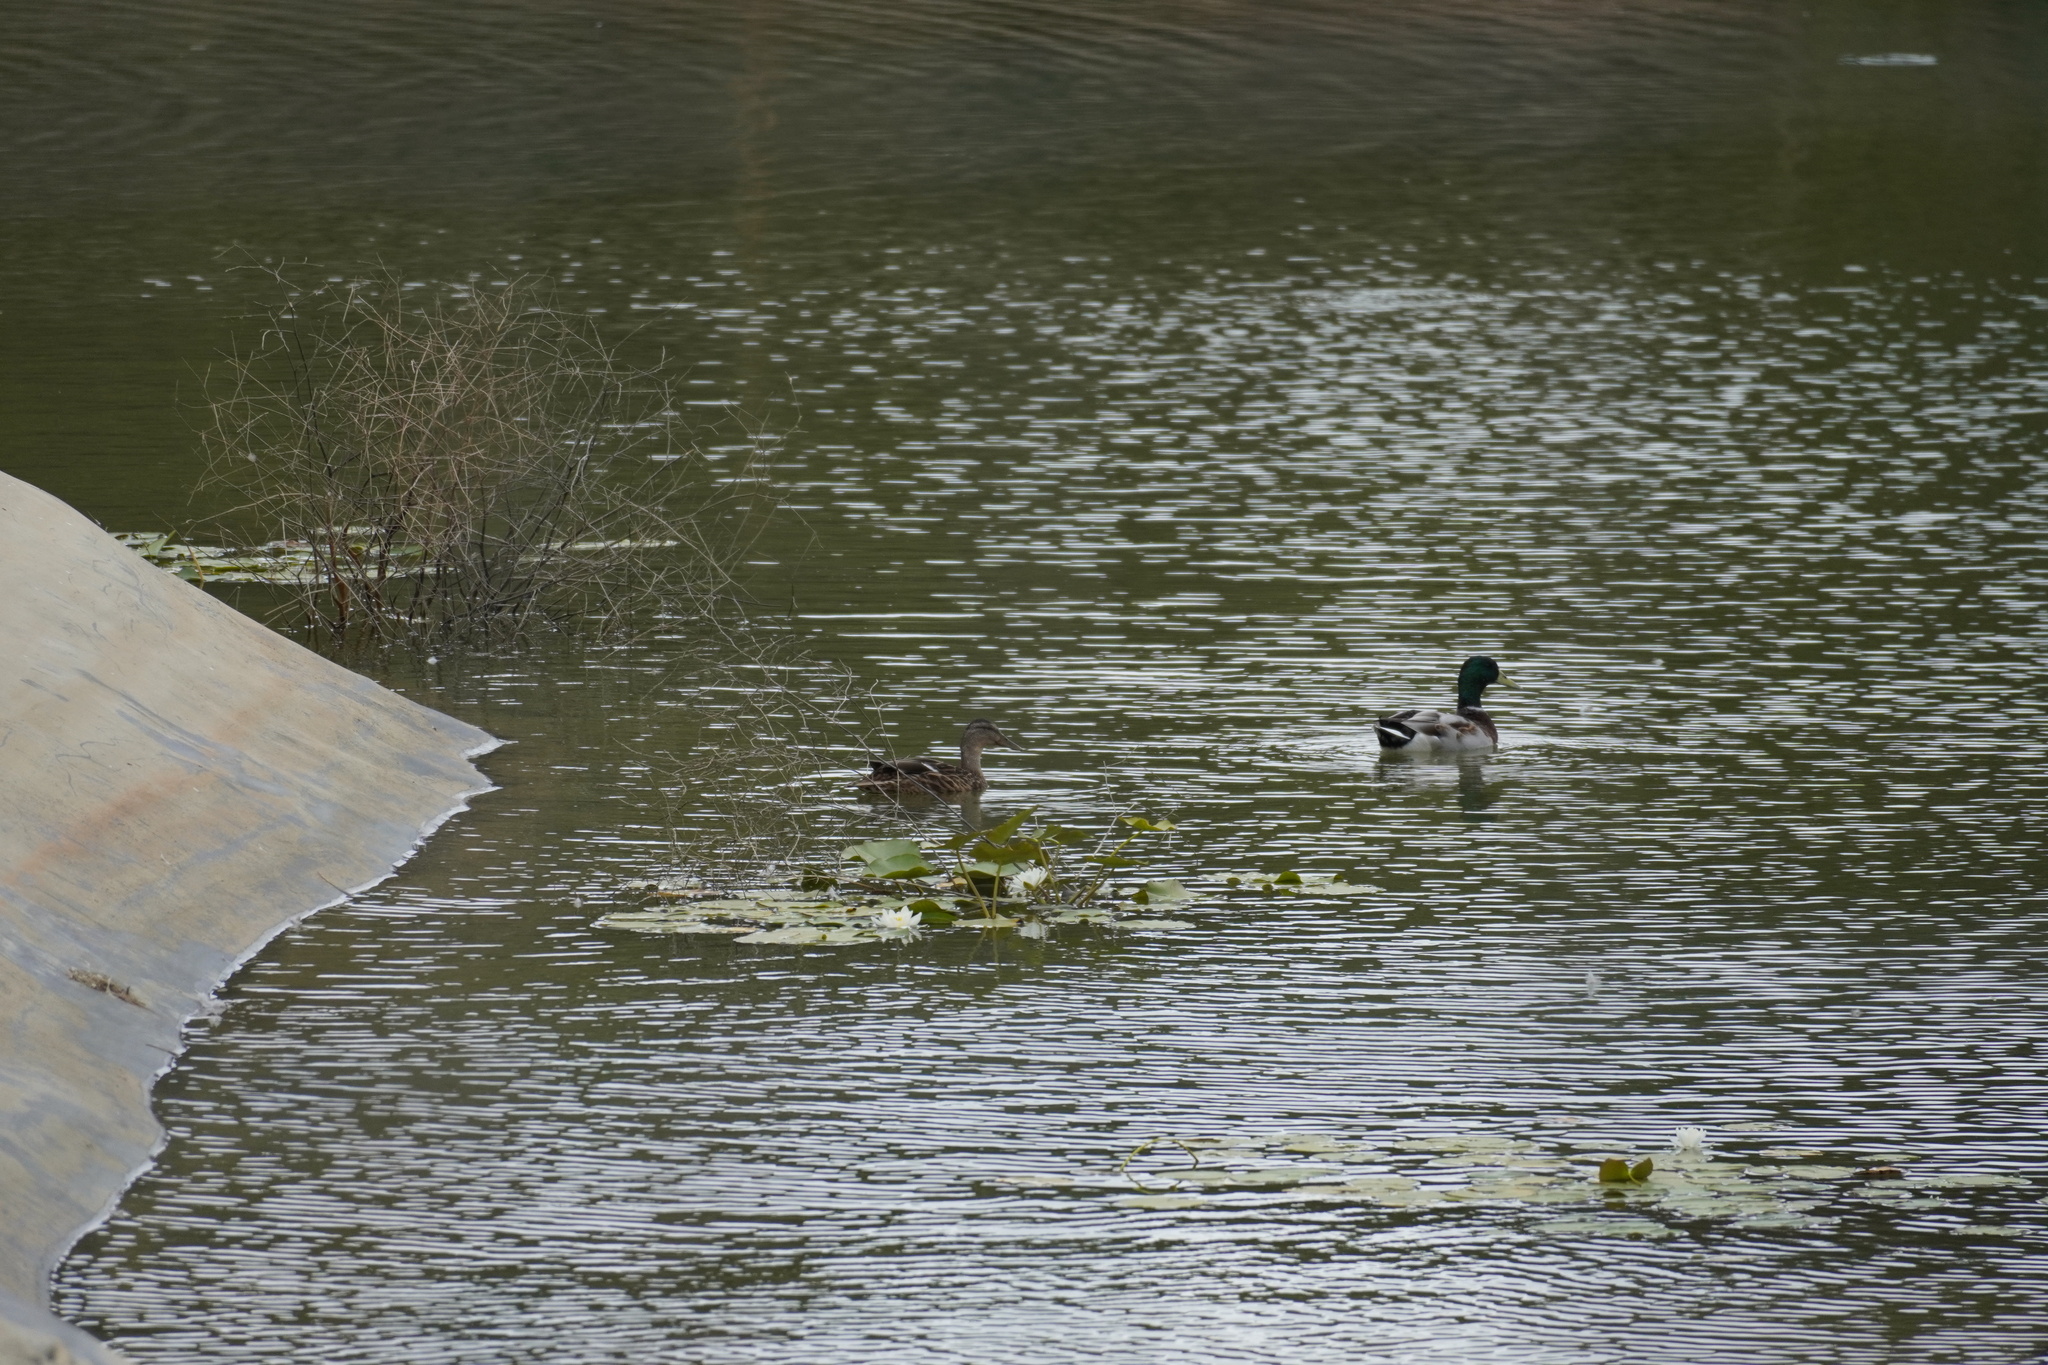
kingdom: Animalia
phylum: Chordata
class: Aves
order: Anseriformes
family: Anatidae
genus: Anas
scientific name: Anas platyrhynchos
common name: Mallard
